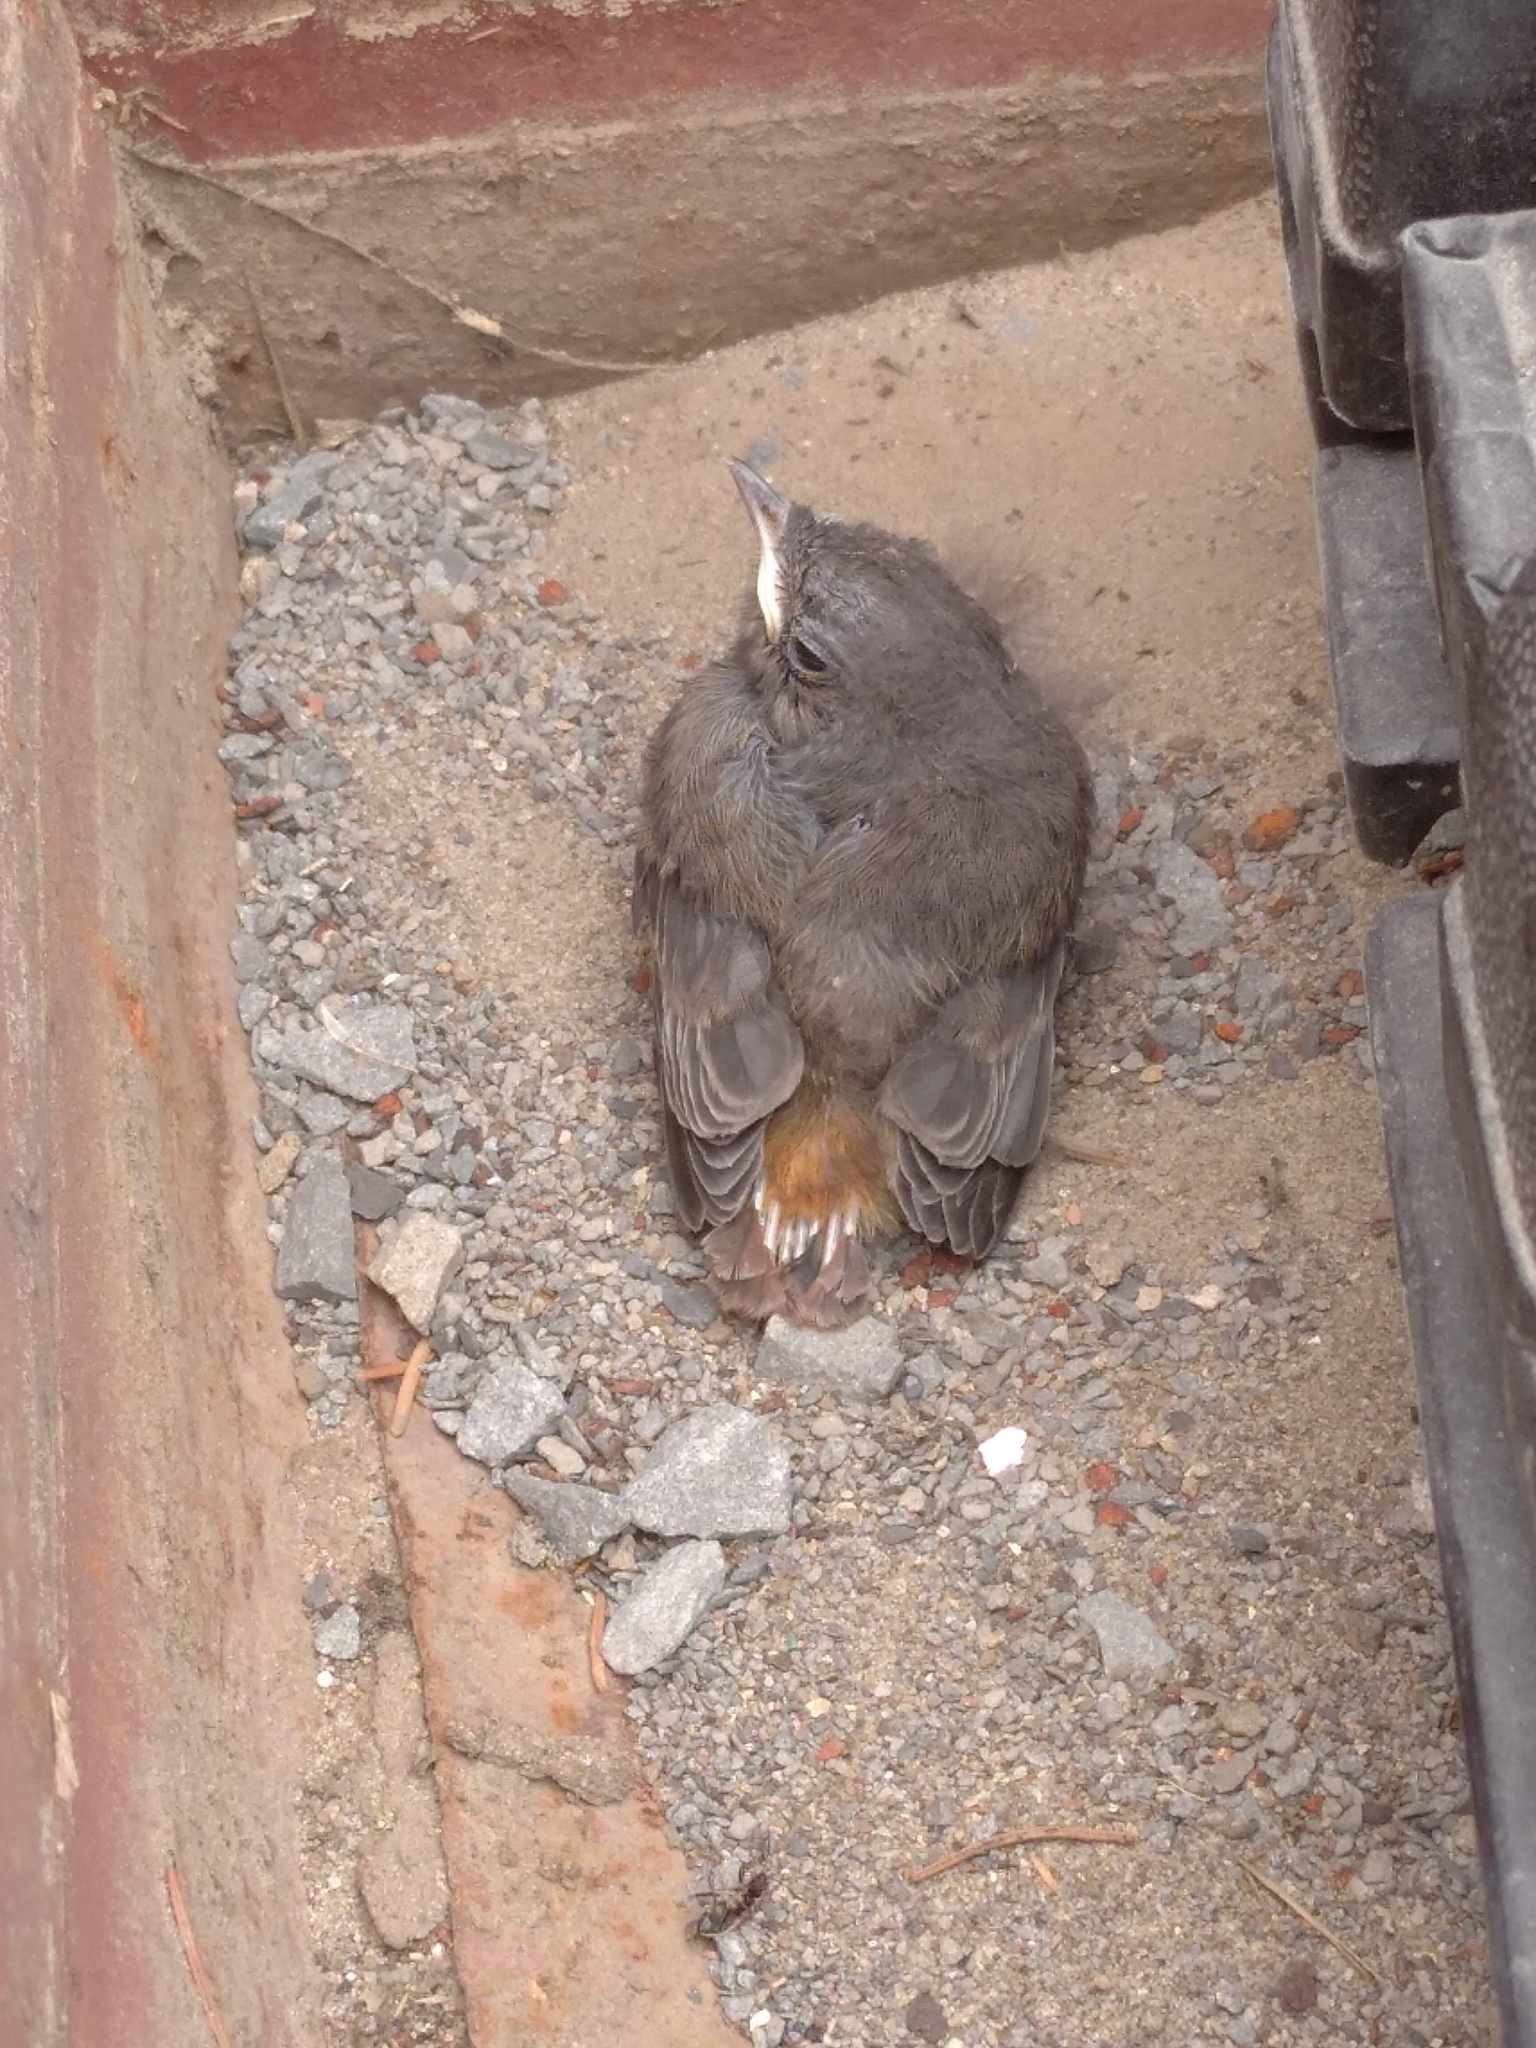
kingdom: Animalia
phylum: Chordata
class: Aves
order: Passeriformes
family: Muscicapidae
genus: Phoenicurus
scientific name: Phoenicurus ochruros
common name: Black redstart
